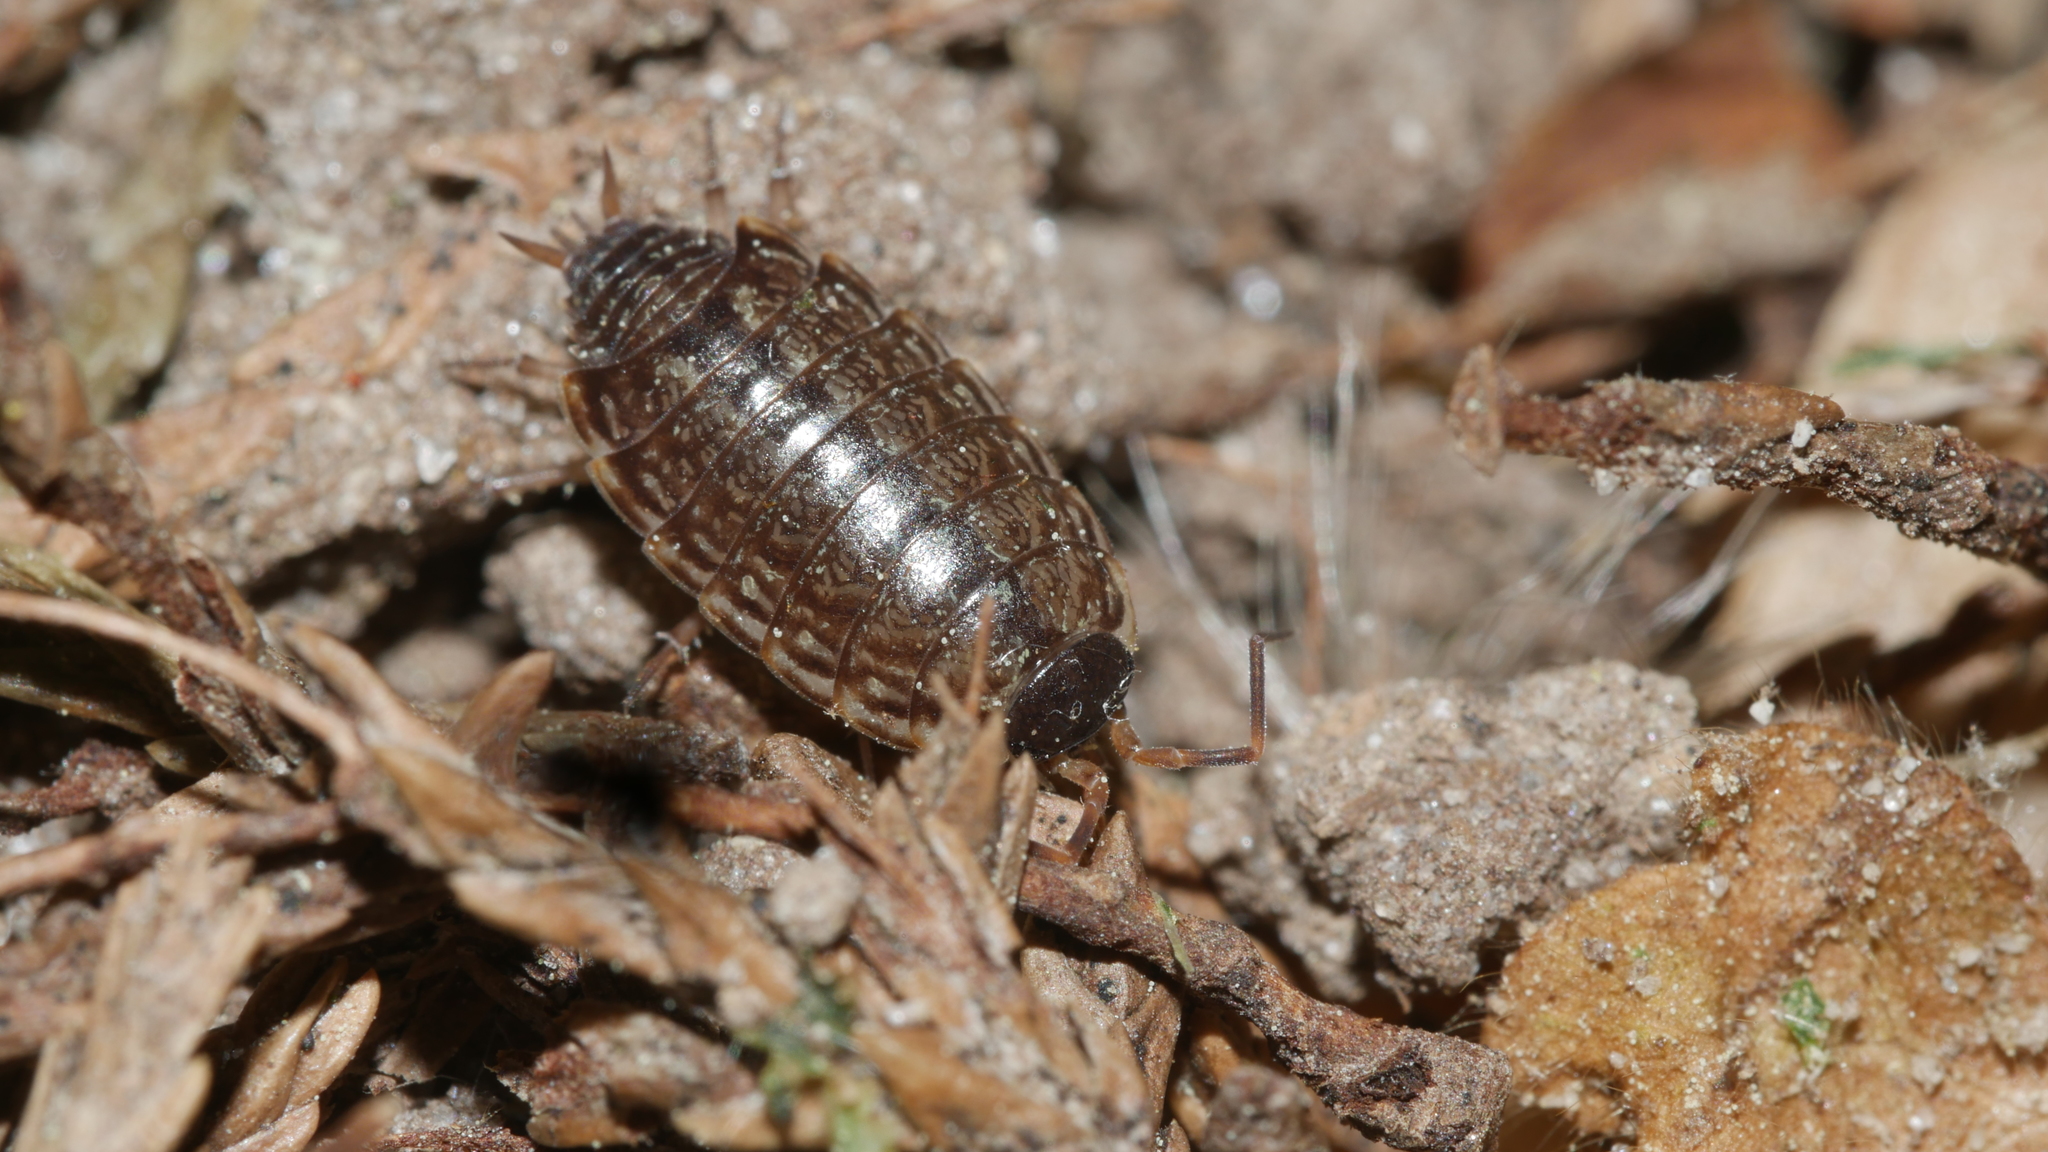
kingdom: Animalia
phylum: Arthropoda
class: Malacostraca
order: Isopoda
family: Philosciidae
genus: Philoscia
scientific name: Philoscia muscorum
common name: Common striped woodlouse
